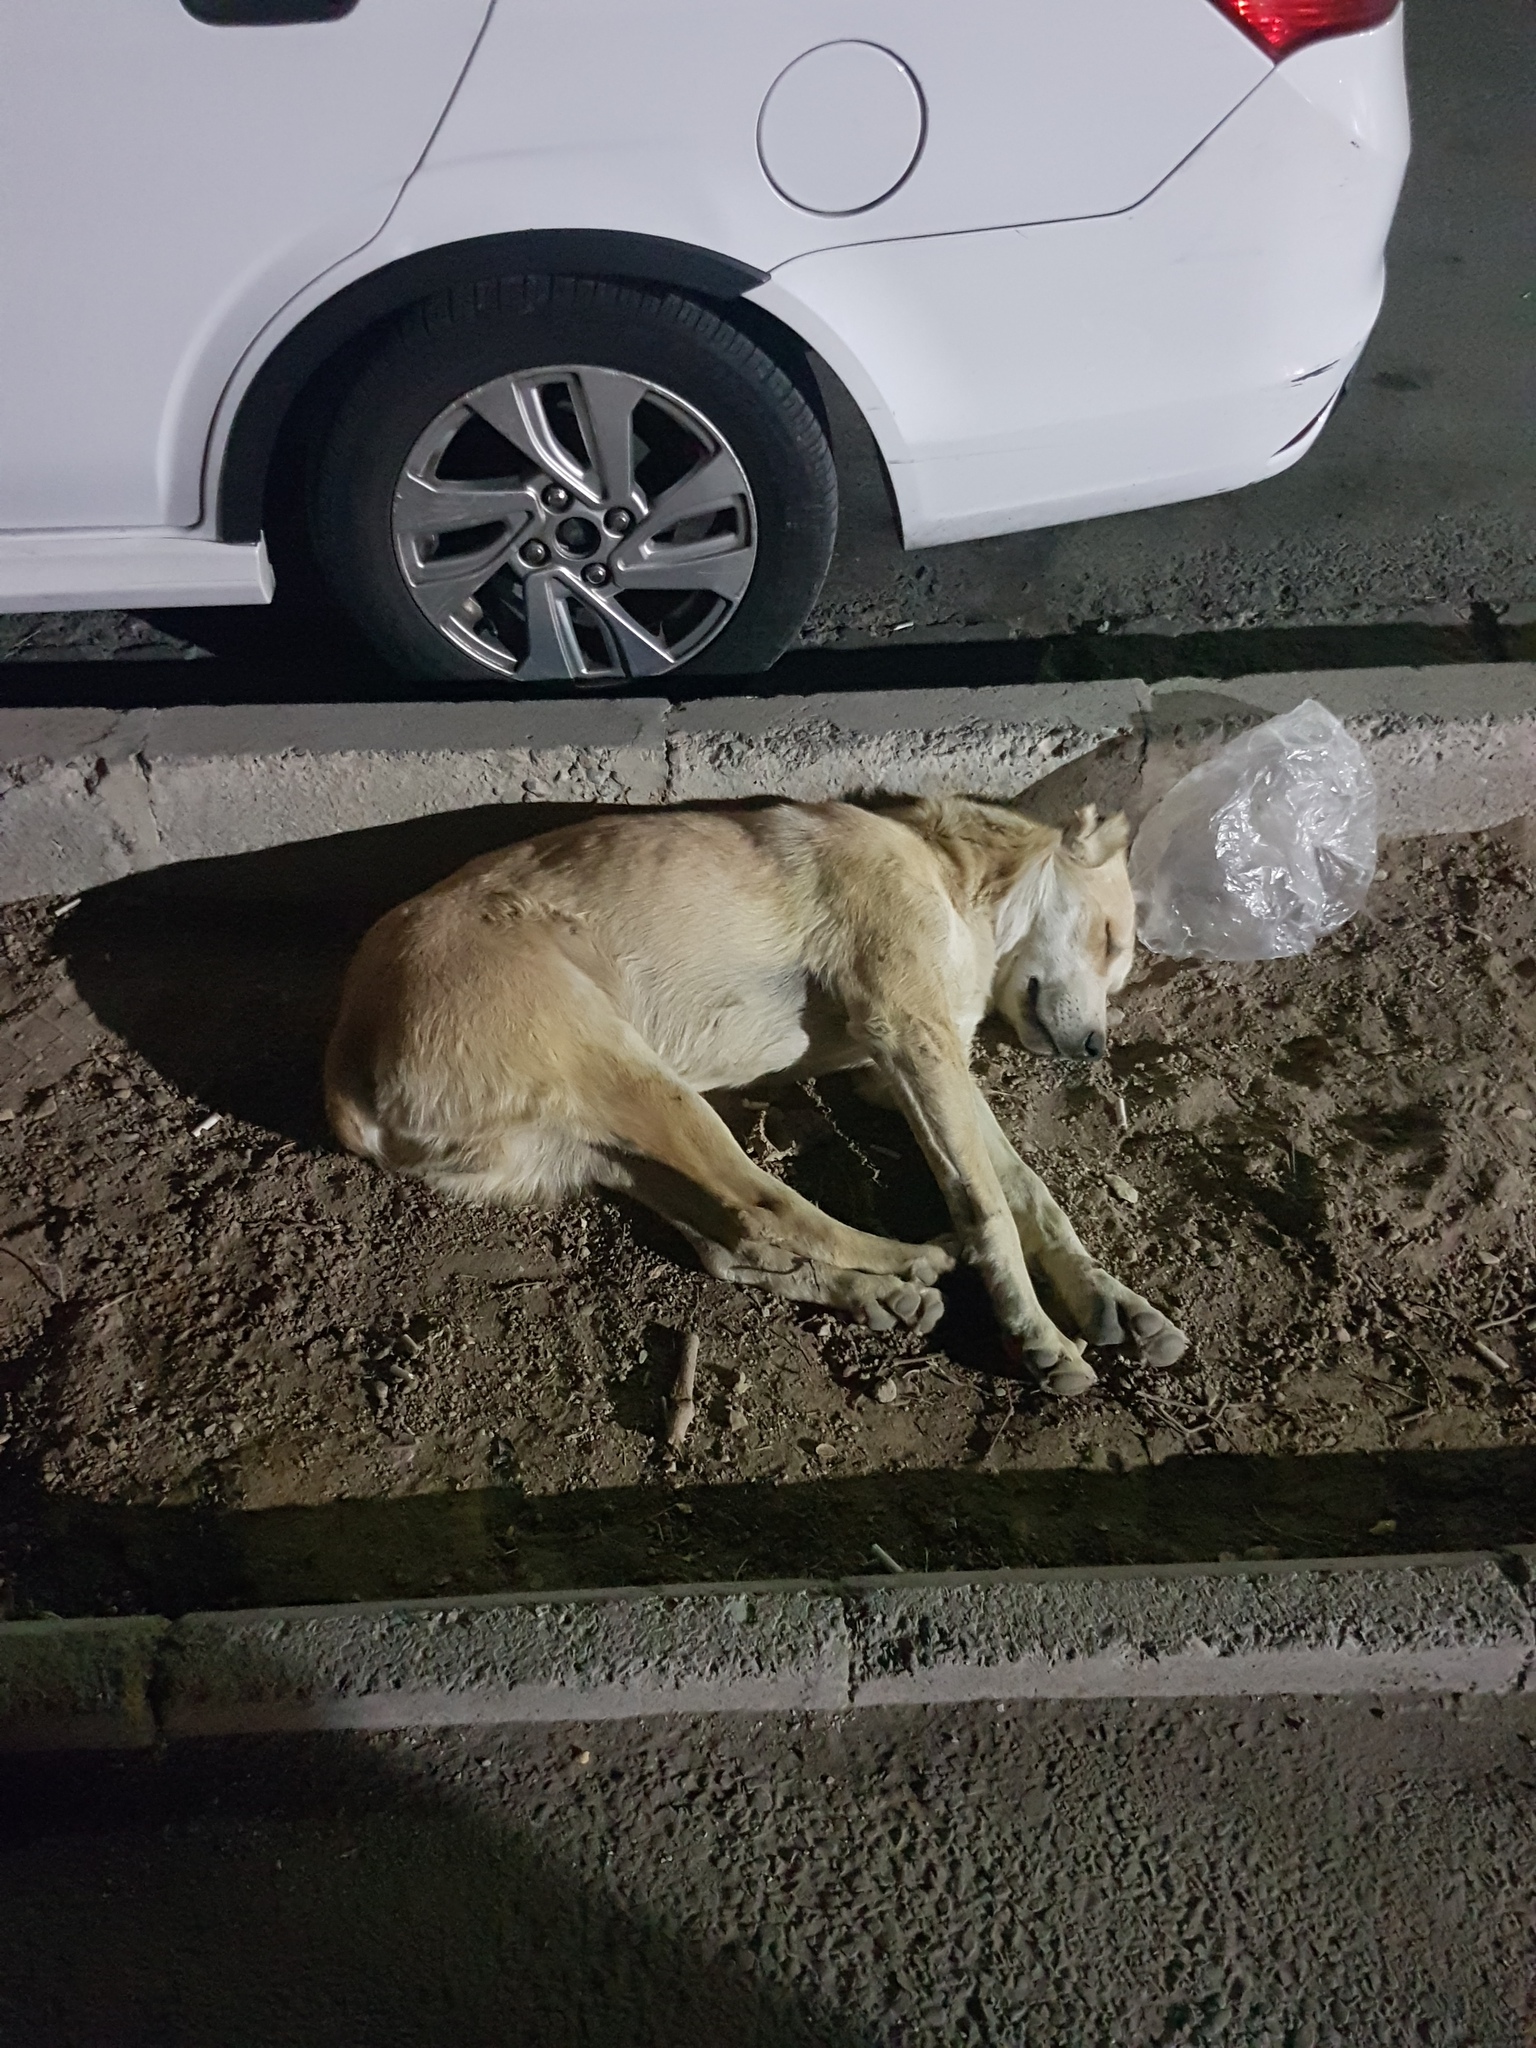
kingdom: Animalia
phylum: Chordata
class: Mammalia
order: Carnivora
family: Canidae
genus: Canis
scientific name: Canis lupus
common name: Gray wolf
